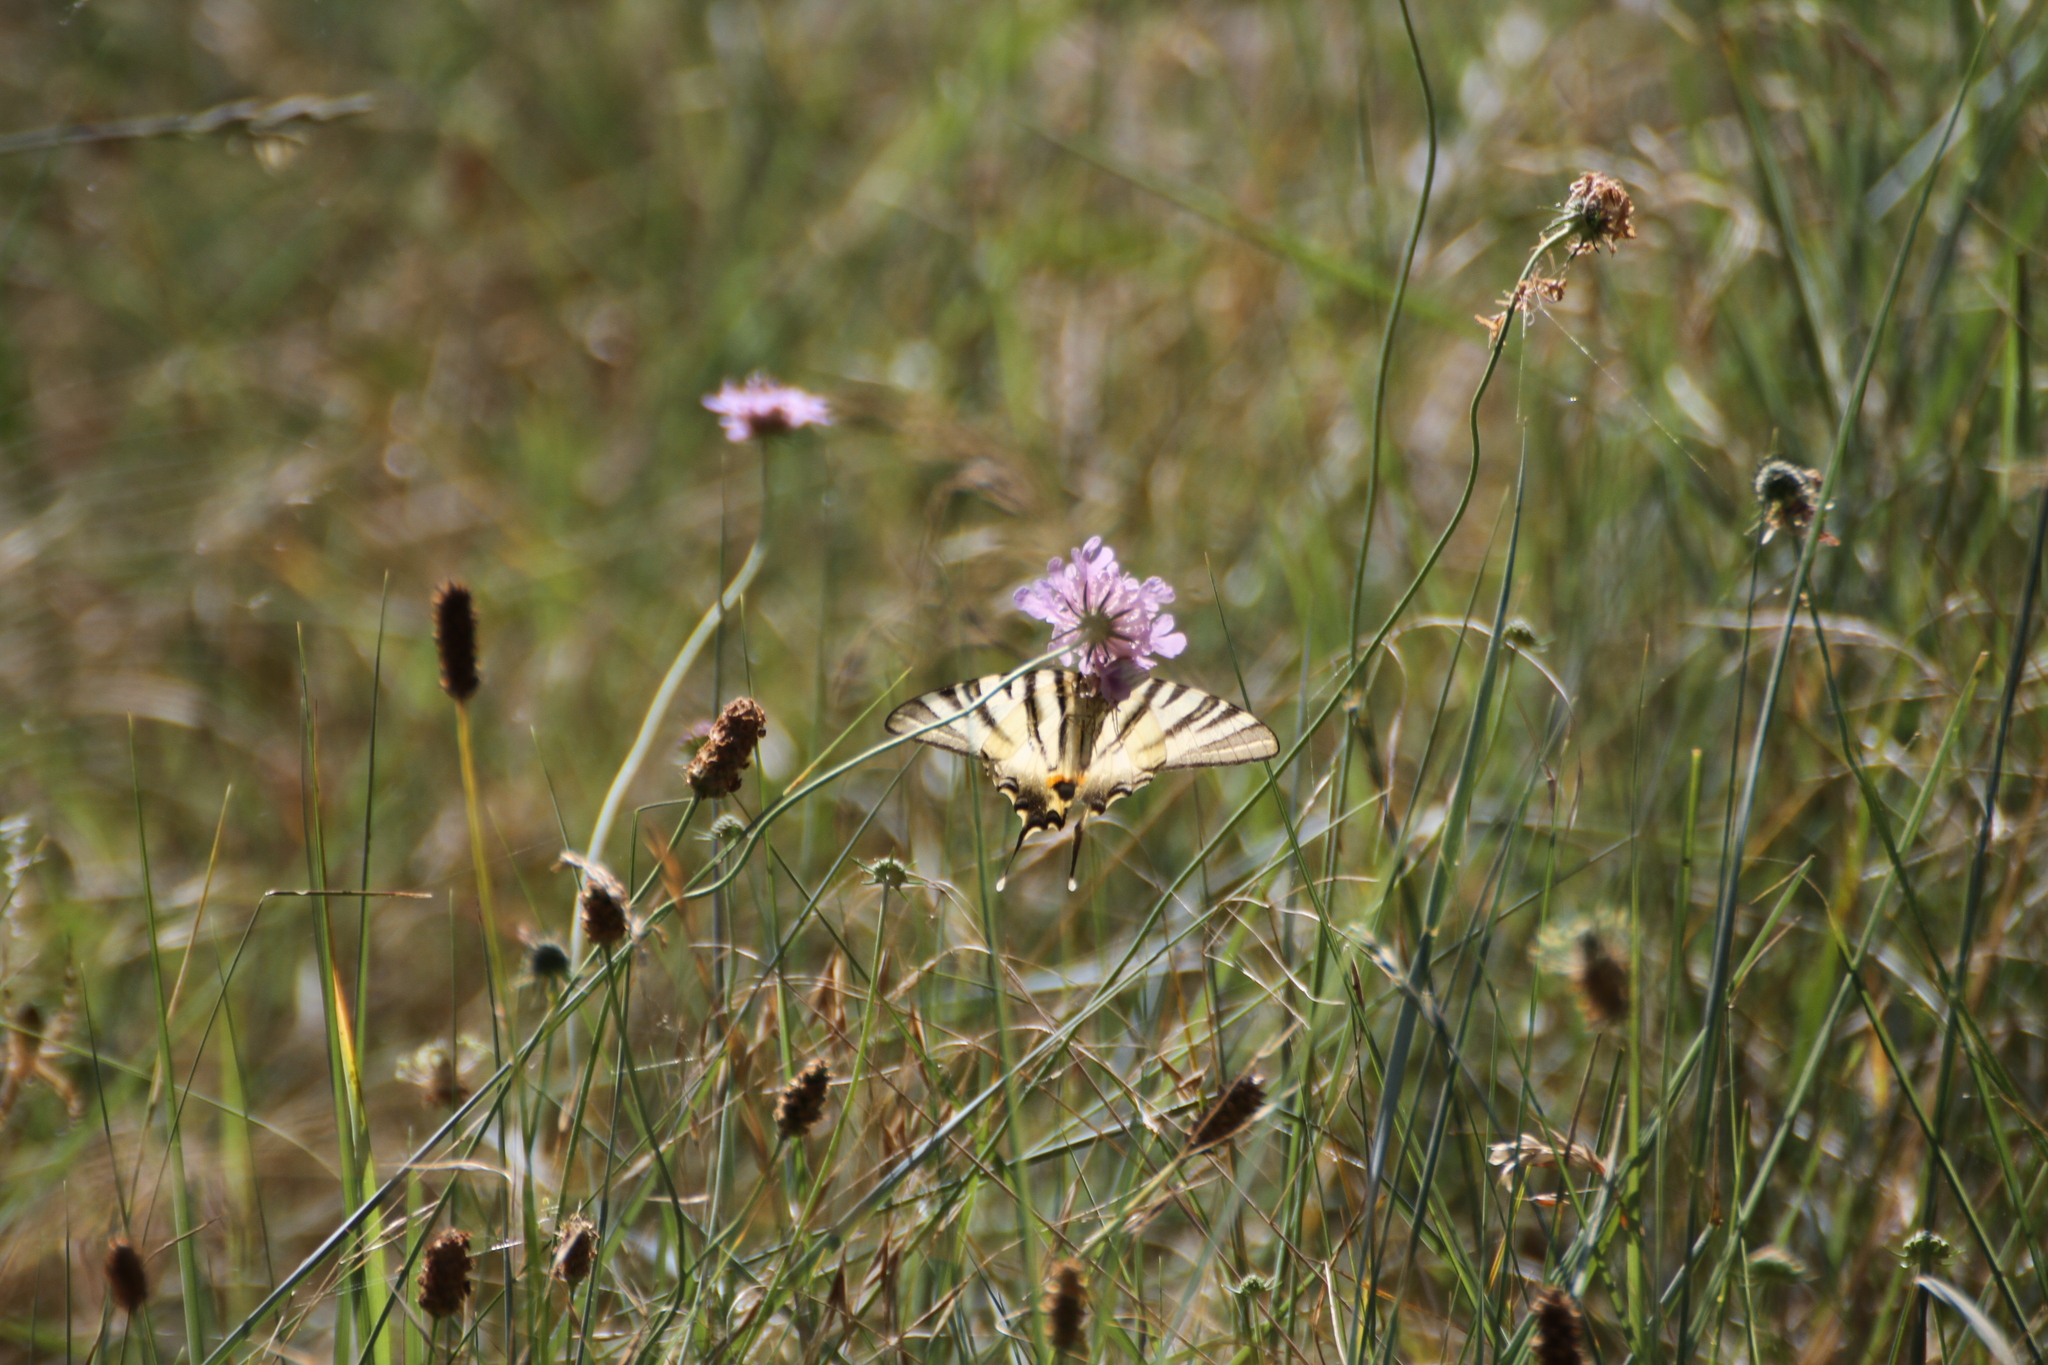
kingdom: Animalia
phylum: Arthropoda
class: Insecta
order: Lepidoptera
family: Papilionidae
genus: Iphiclides
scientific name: Iphiclides podalirius
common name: Scarce swallowtail
